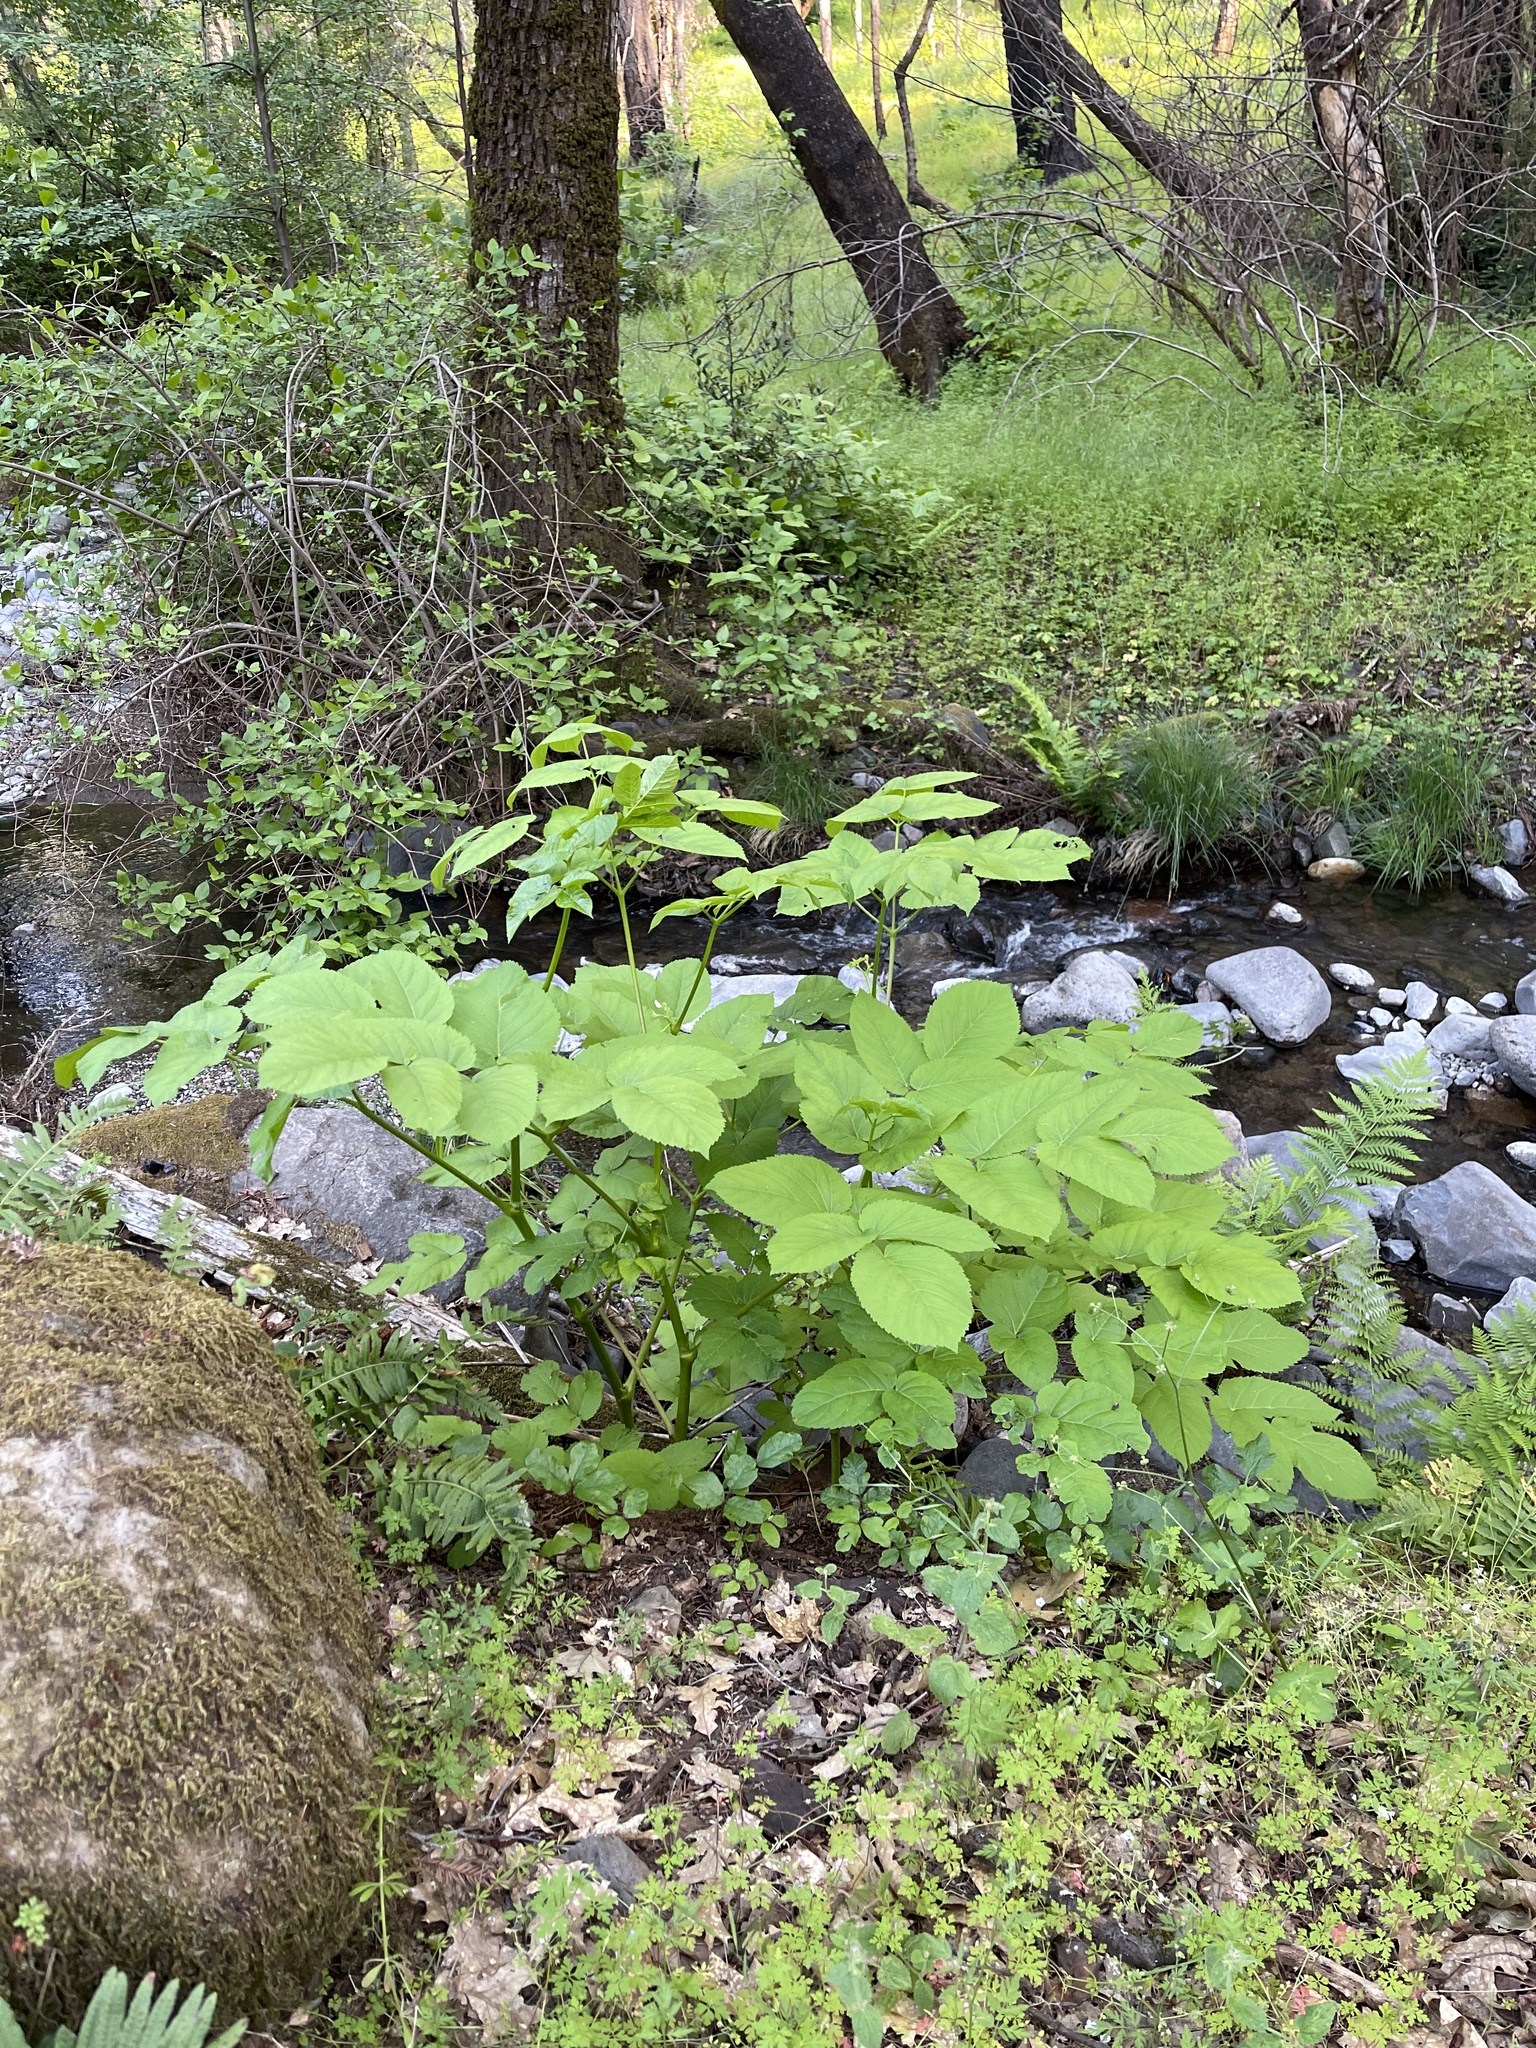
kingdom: Plantae
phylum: Tracheophyta
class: Magnoliopsida
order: Apiales
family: Araliaceae
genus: Aralia
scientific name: Aralia californica
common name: California-ginseng
